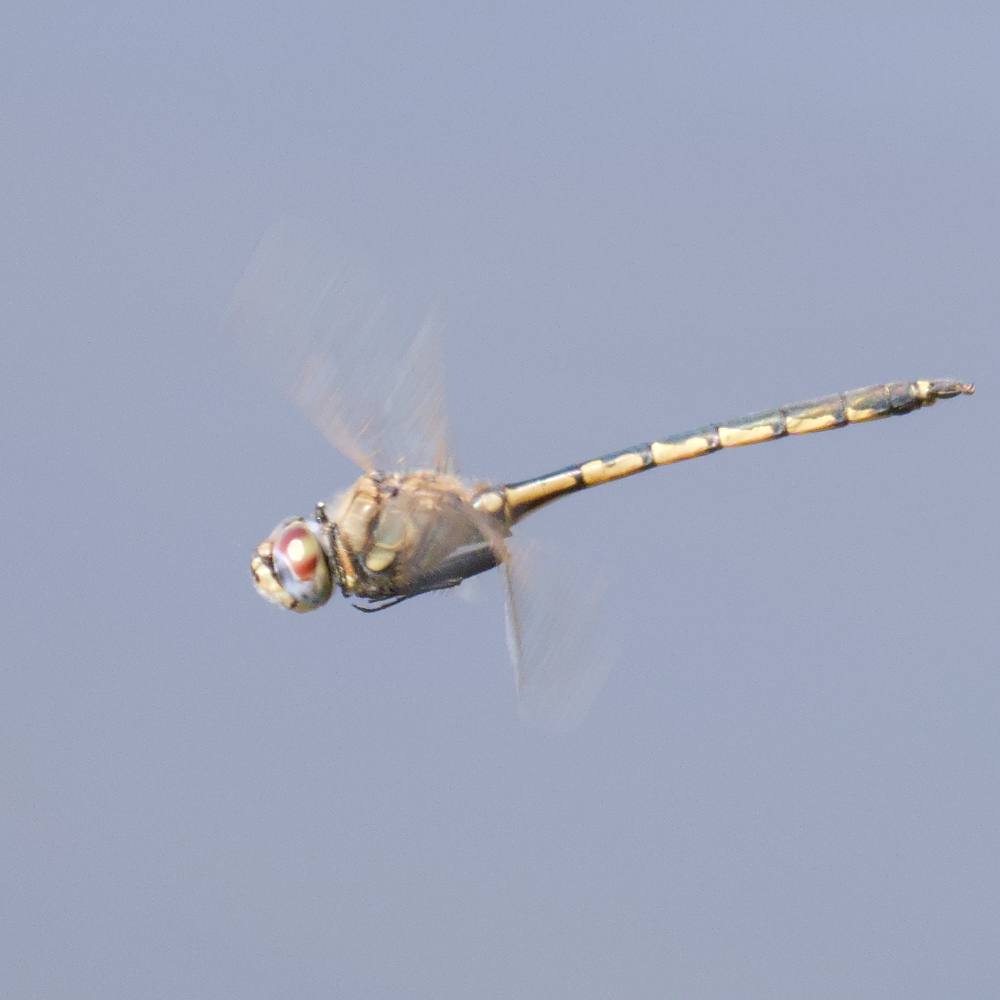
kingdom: Animalia
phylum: Arthropoda
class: Insecta
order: Odonata
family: Corduliidae
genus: Hemicordulia
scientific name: Hemicordulia tau
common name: Tau emerald
